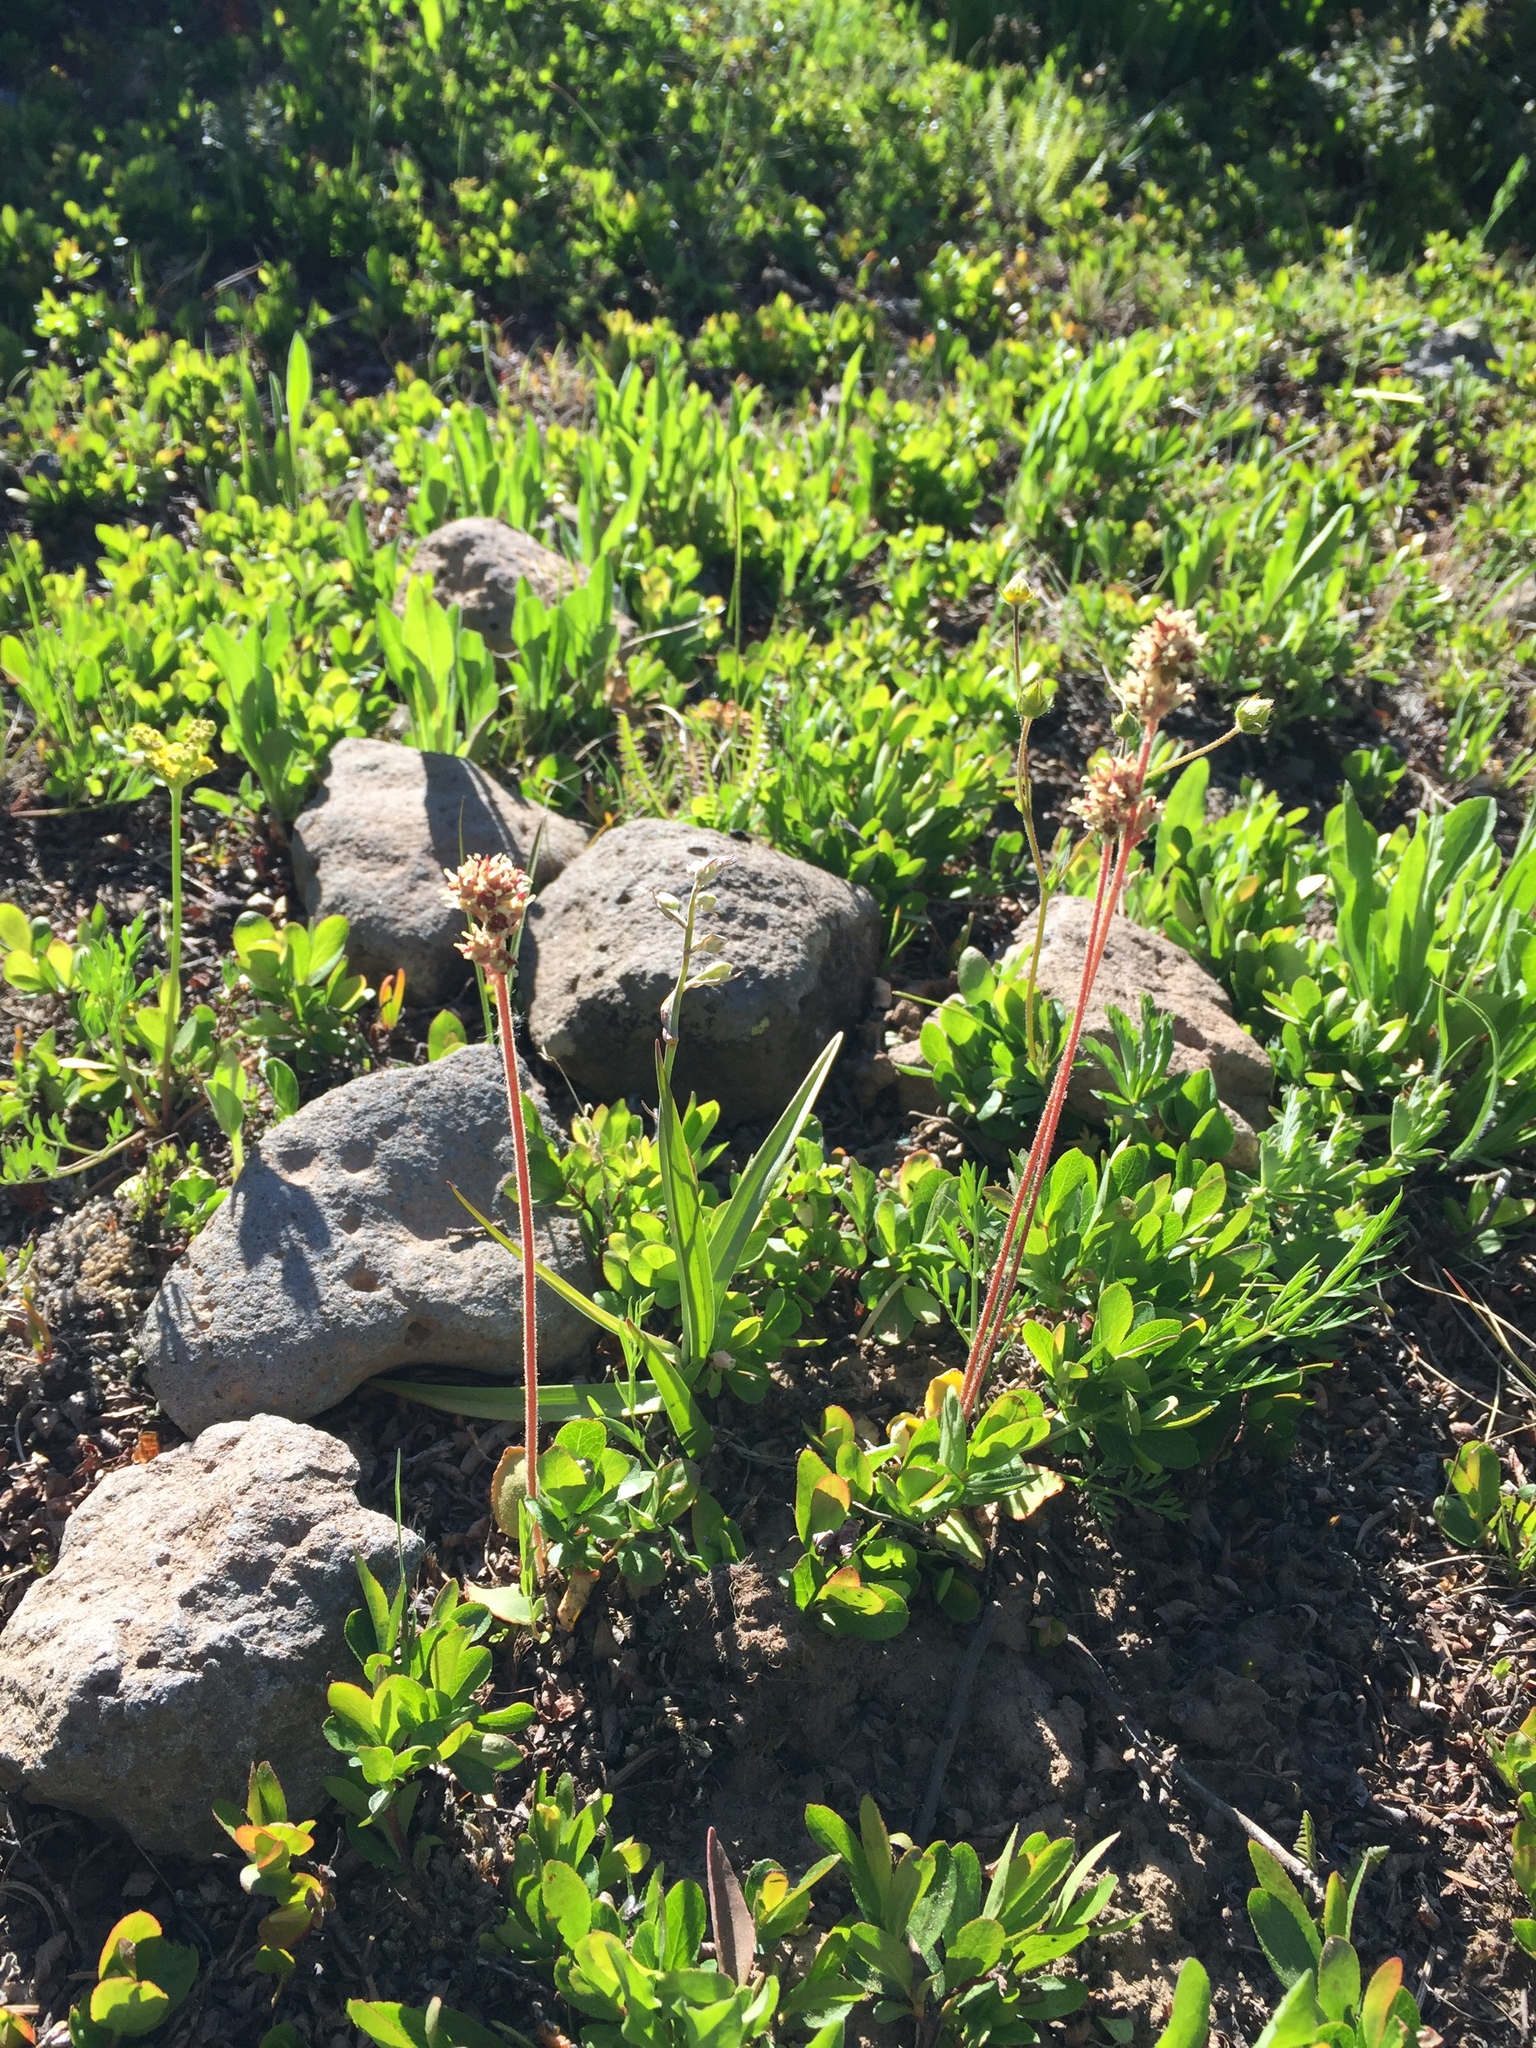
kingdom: Plantae
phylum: Tracheophyta
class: Magnoliopsida
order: Saxifragales
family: Saxifragaceae
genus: Micranthes
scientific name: Micranthes oregana
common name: Bog saxifrage
